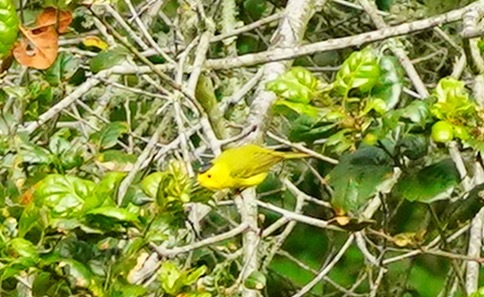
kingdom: Animalia
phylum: Chordata
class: Aves
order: Passeriformes
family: Parulidae
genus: Cardellina
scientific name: Cardellina pusilla
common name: Wilson's warbler
